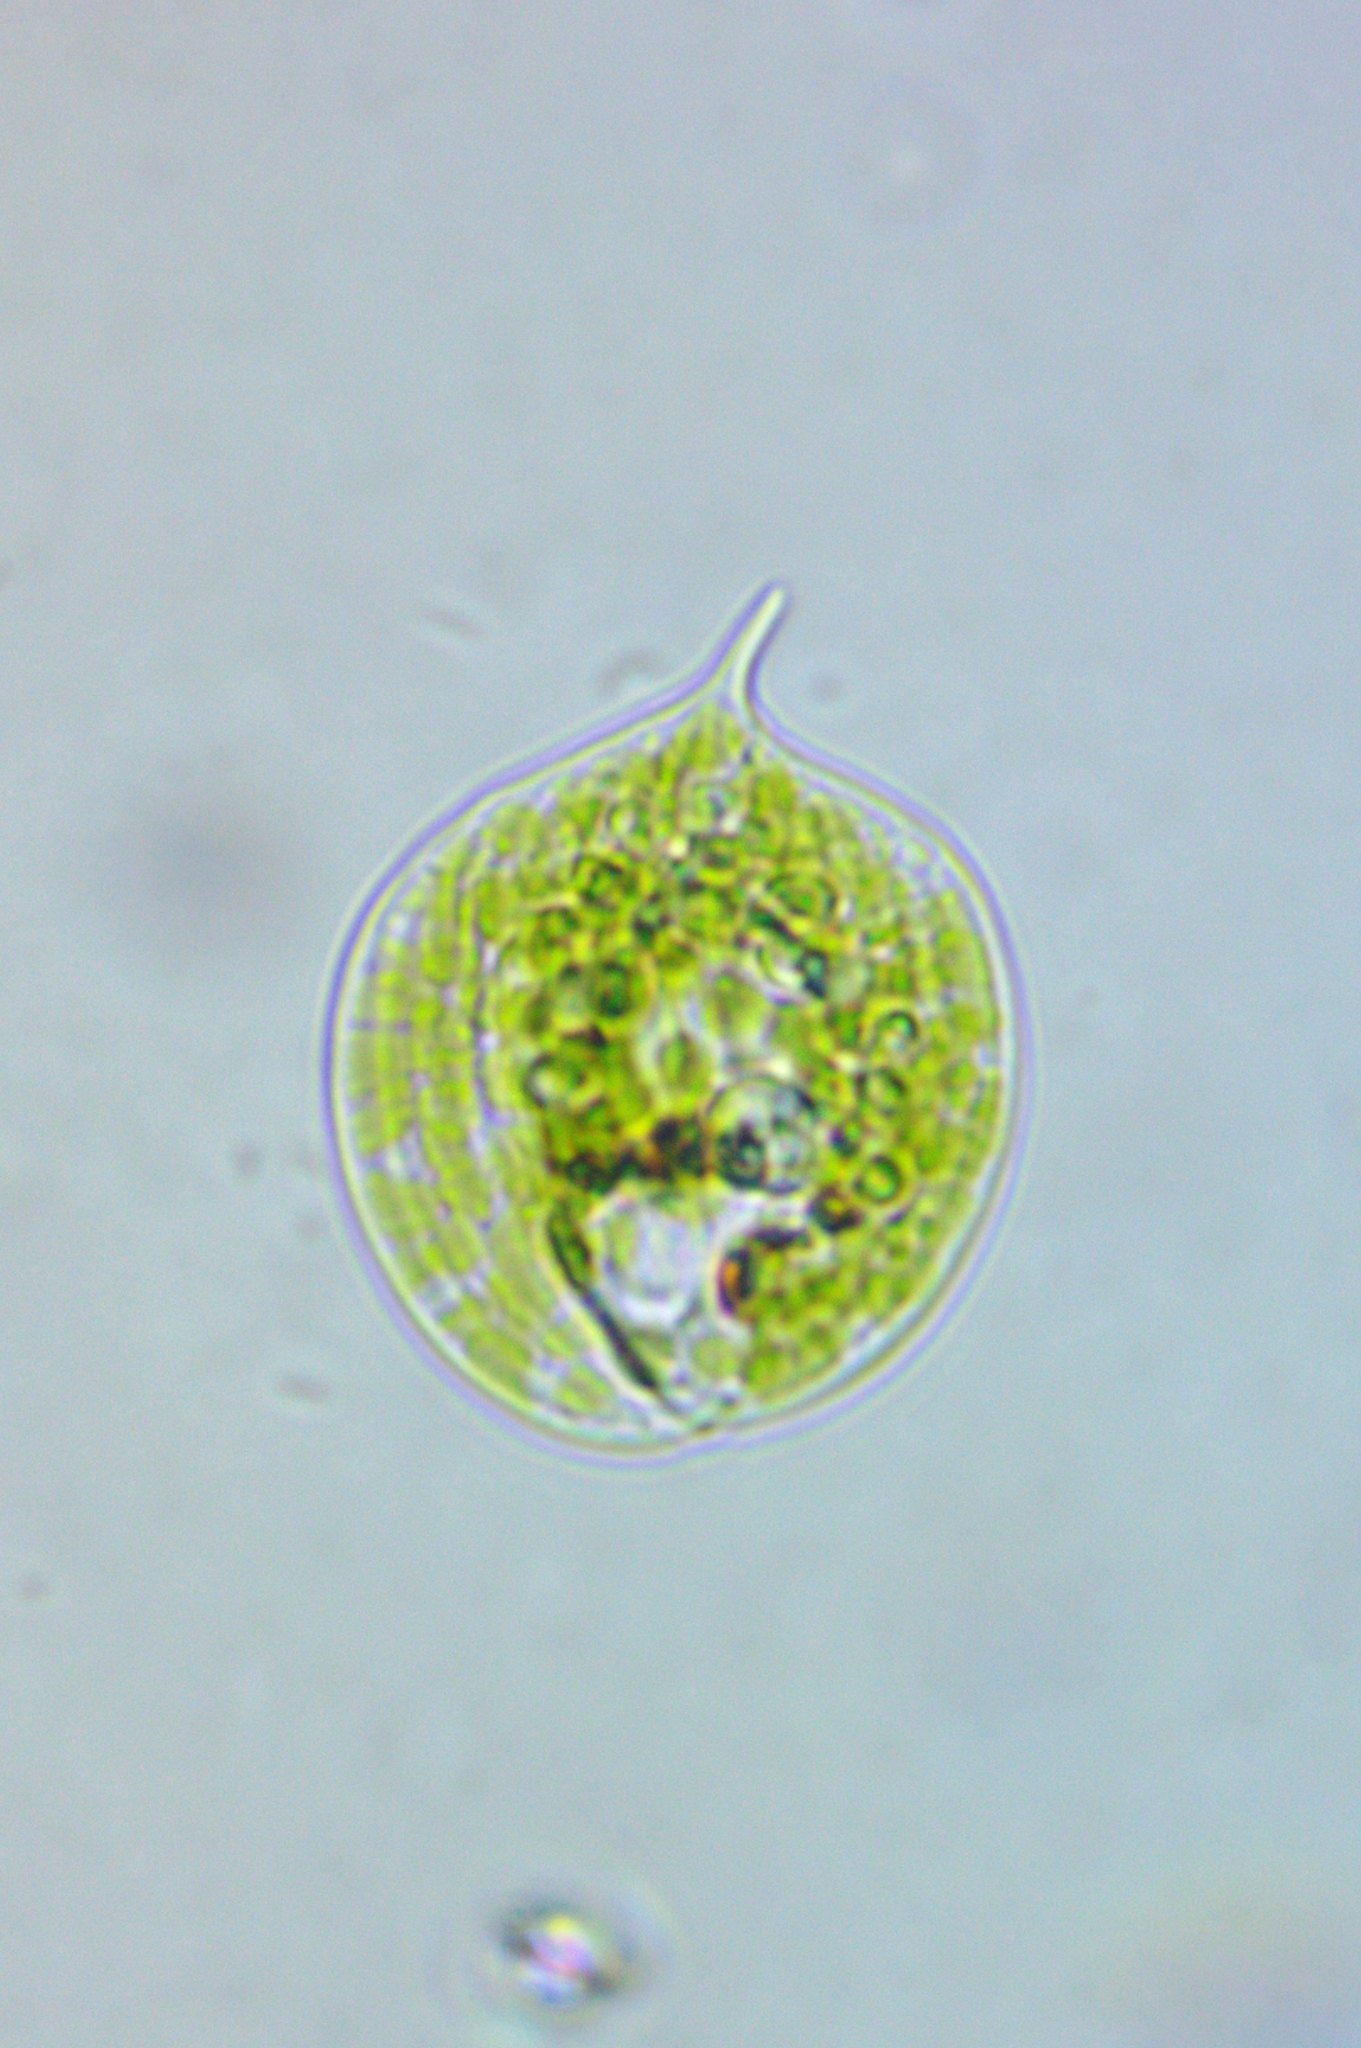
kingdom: Protozoa
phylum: Euglenozoa
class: Euglenoidea
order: Euglenida
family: Phacidae
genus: Phacus
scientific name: Phacus orbicularis
